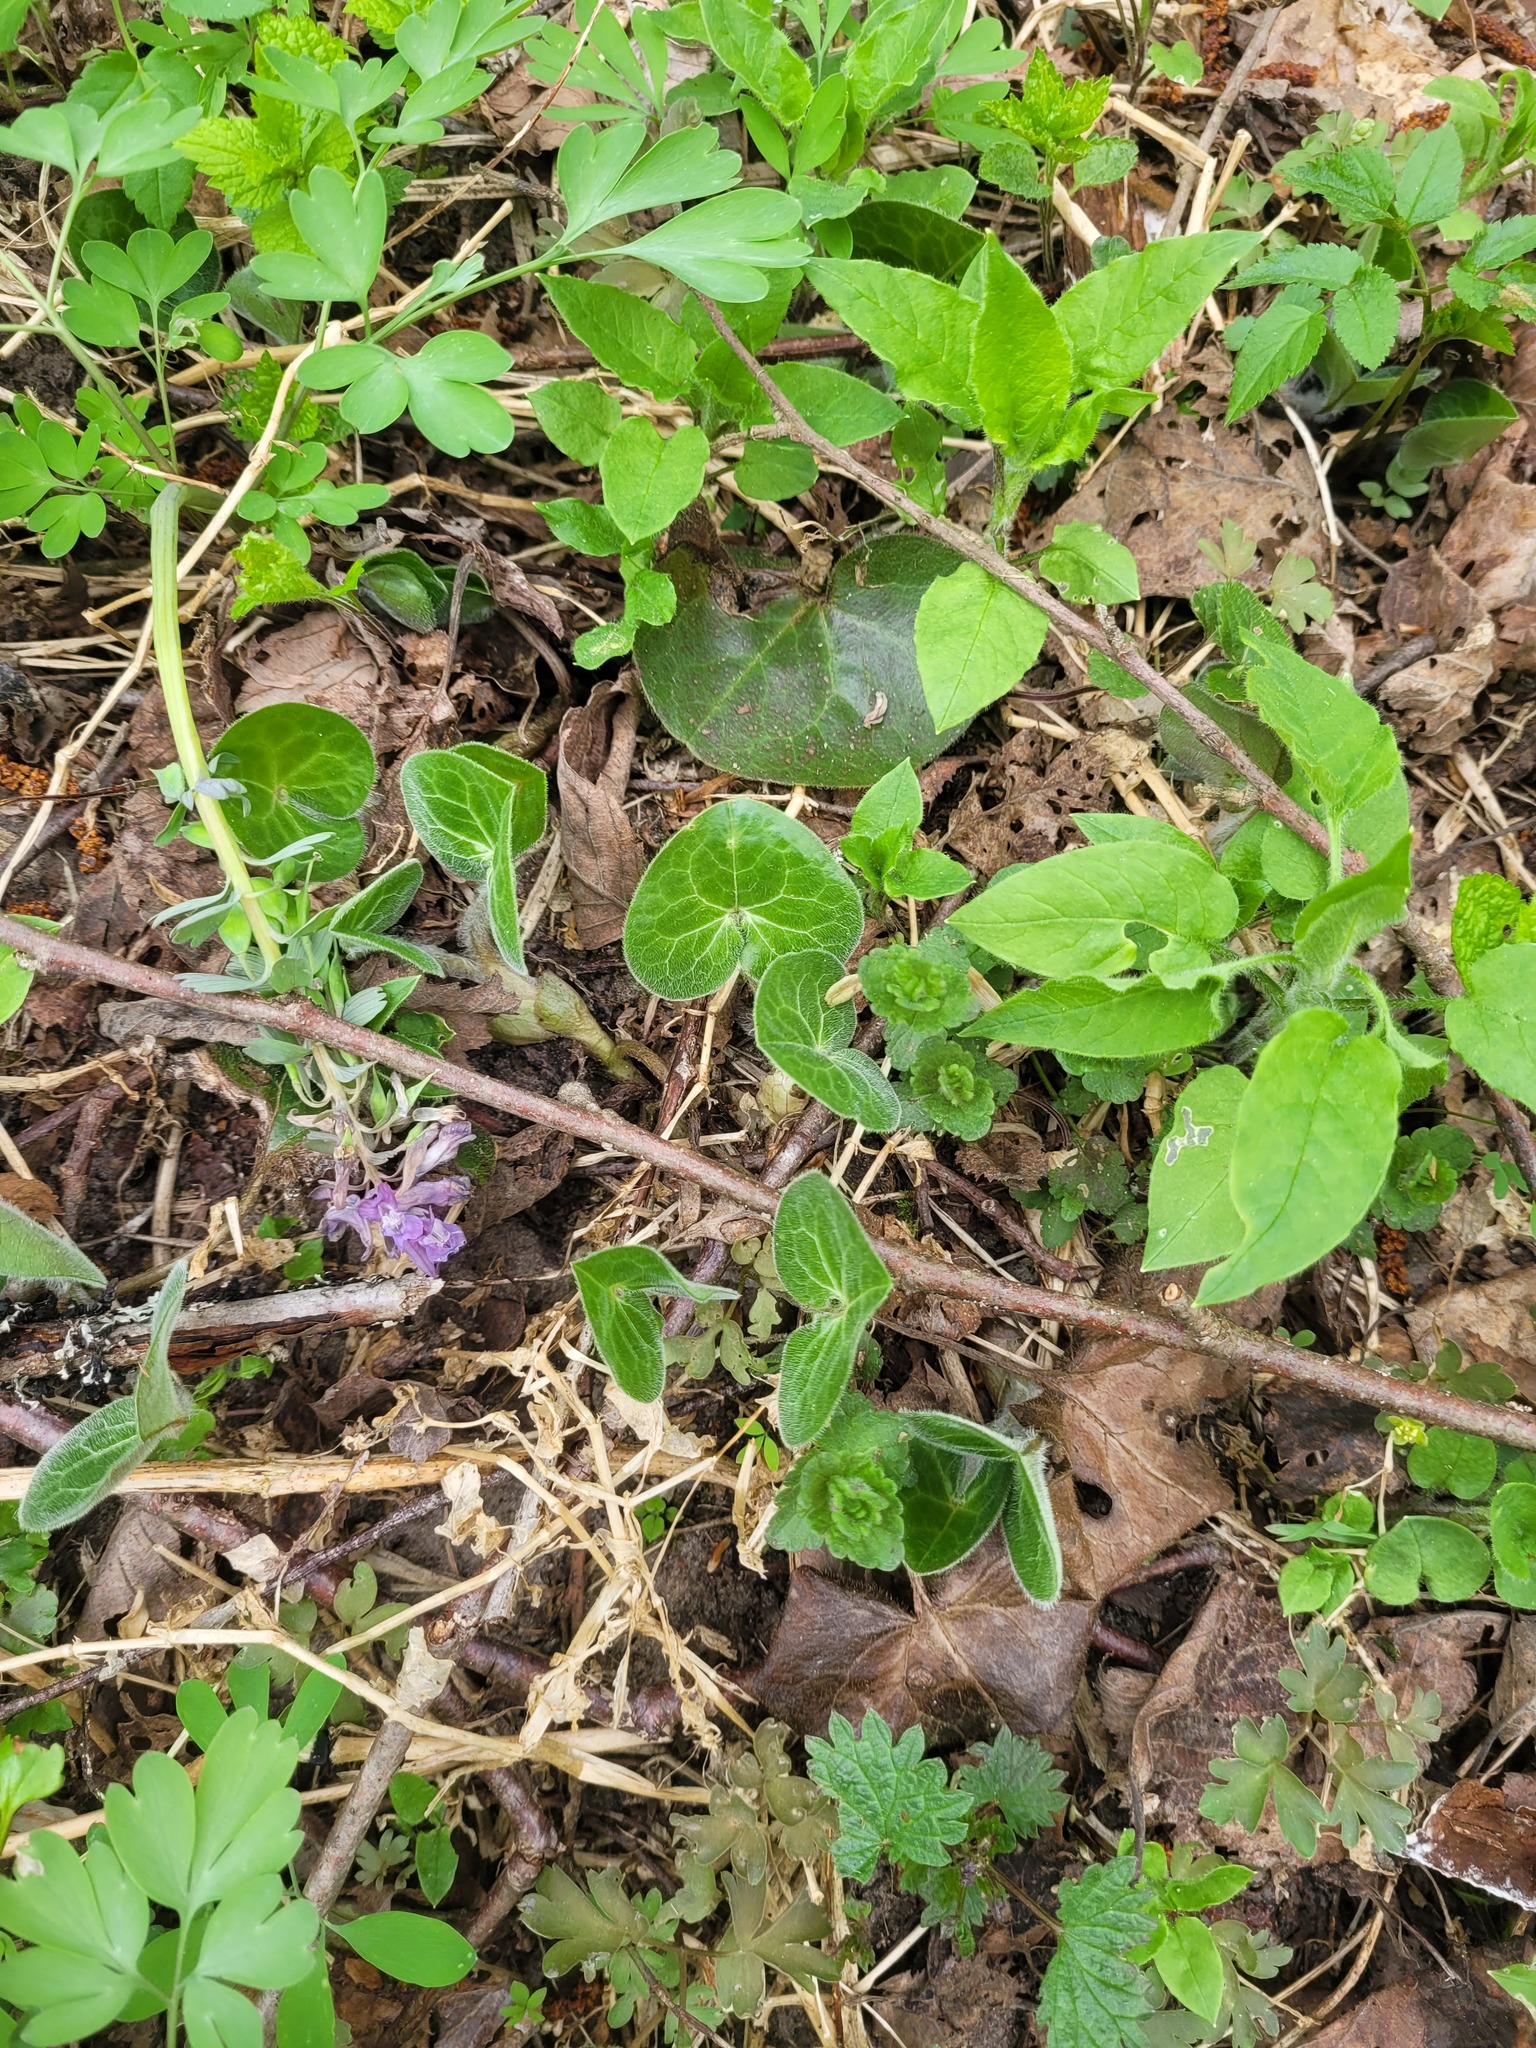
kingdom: Plantae
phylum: Tracheophyta
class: Magnoliopsida
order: Piperales
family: Aristolochiaceae
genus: Asarum
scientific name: Asarum europaeum
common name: Asarabacca
